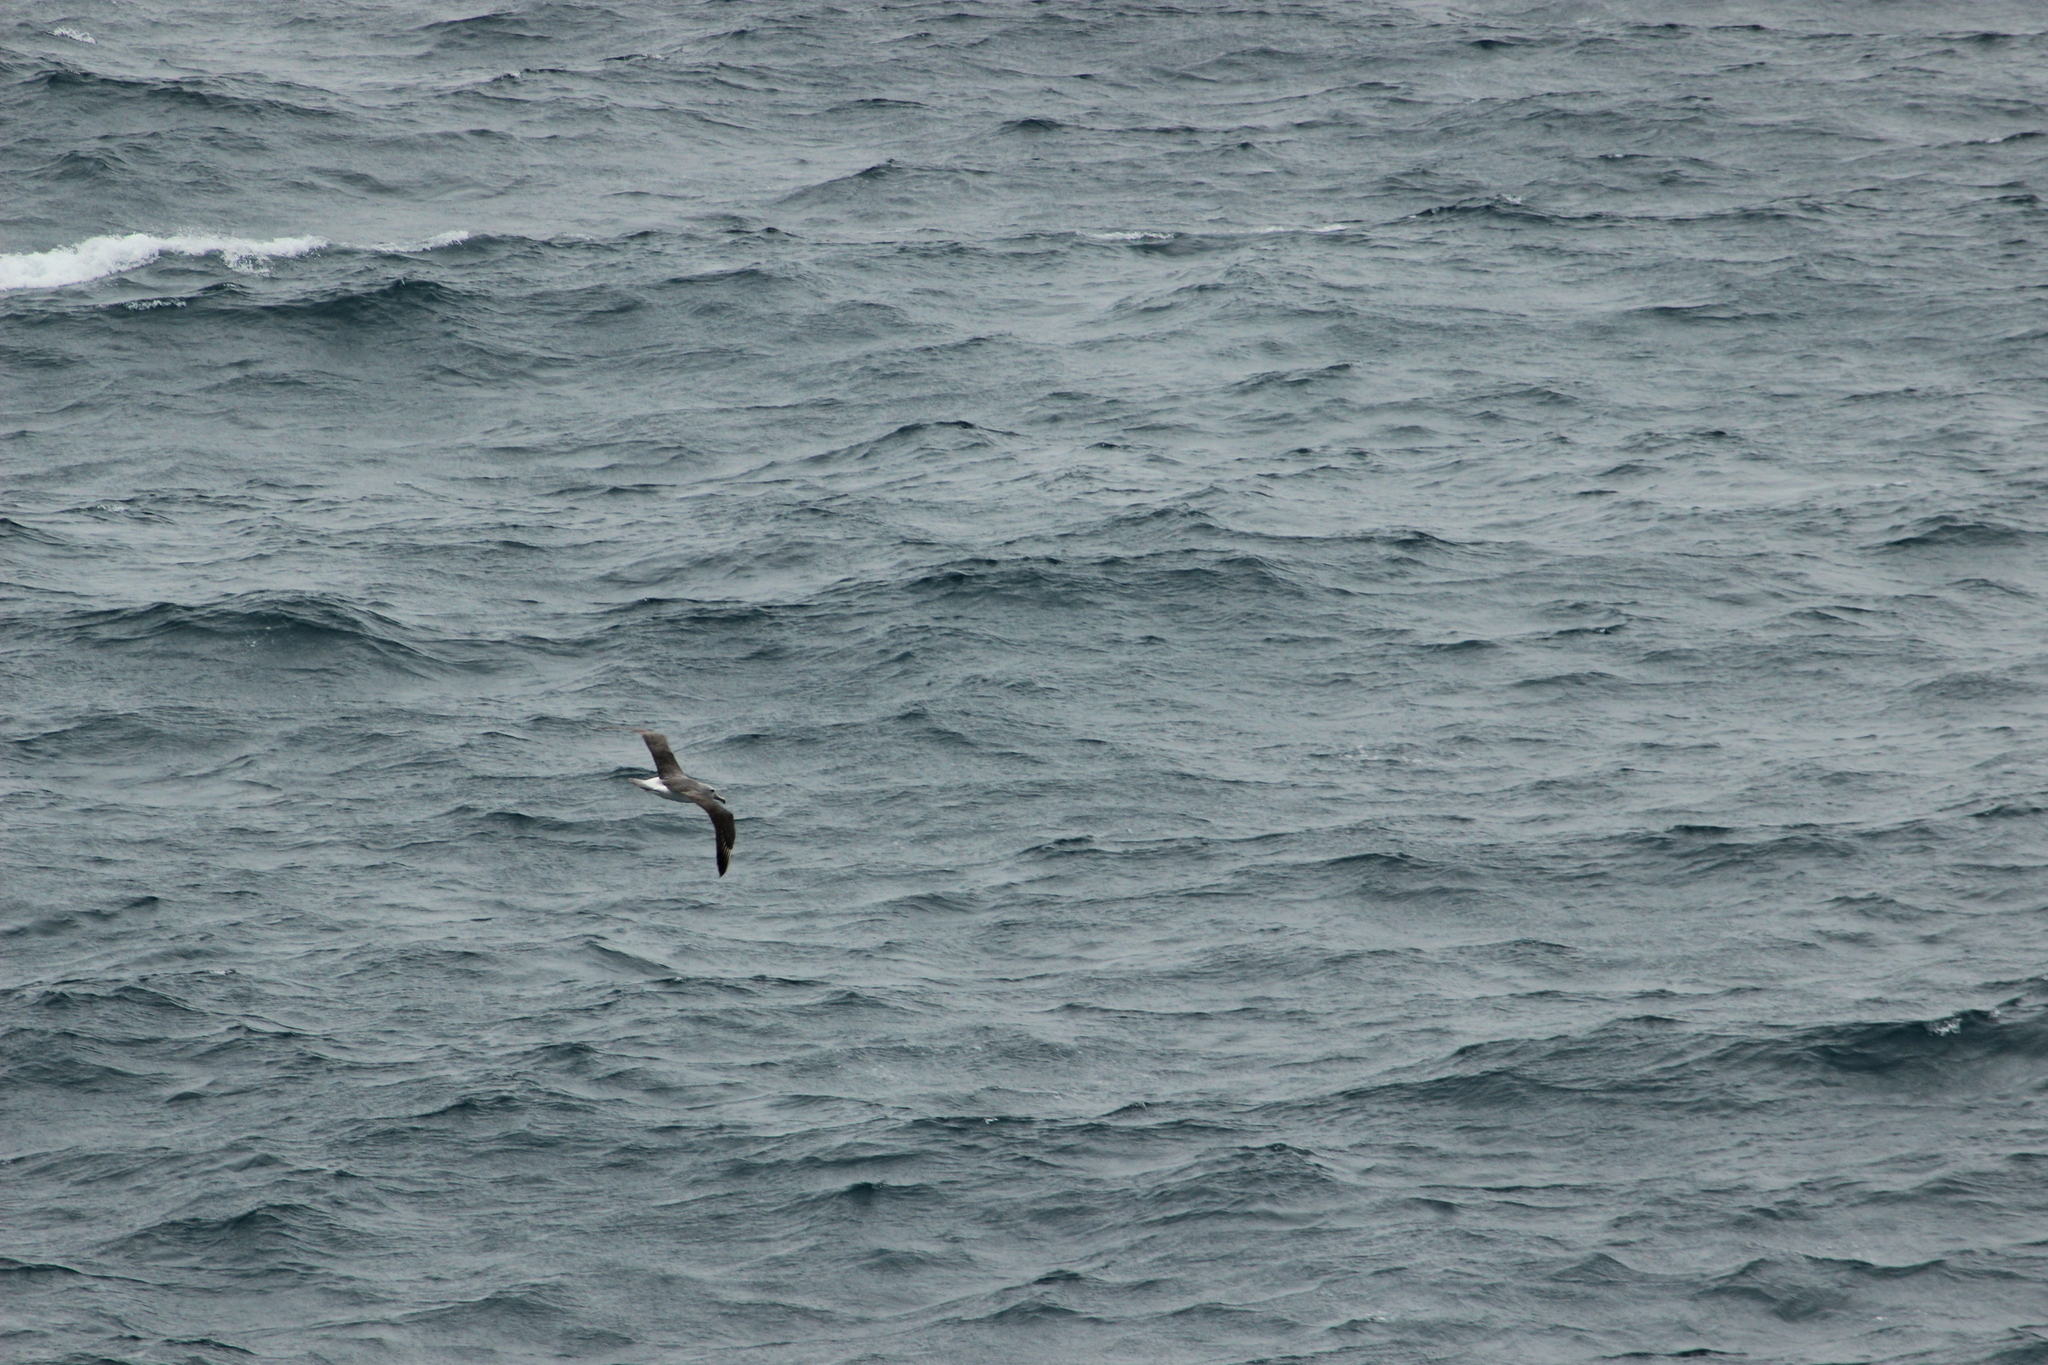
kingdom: Animalia
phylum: Chordata
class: Aves
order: Procellariiformes
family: Diomedeidae
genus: Thalassarche
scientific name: Thalassarche salvini
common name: Salvin's albatross
